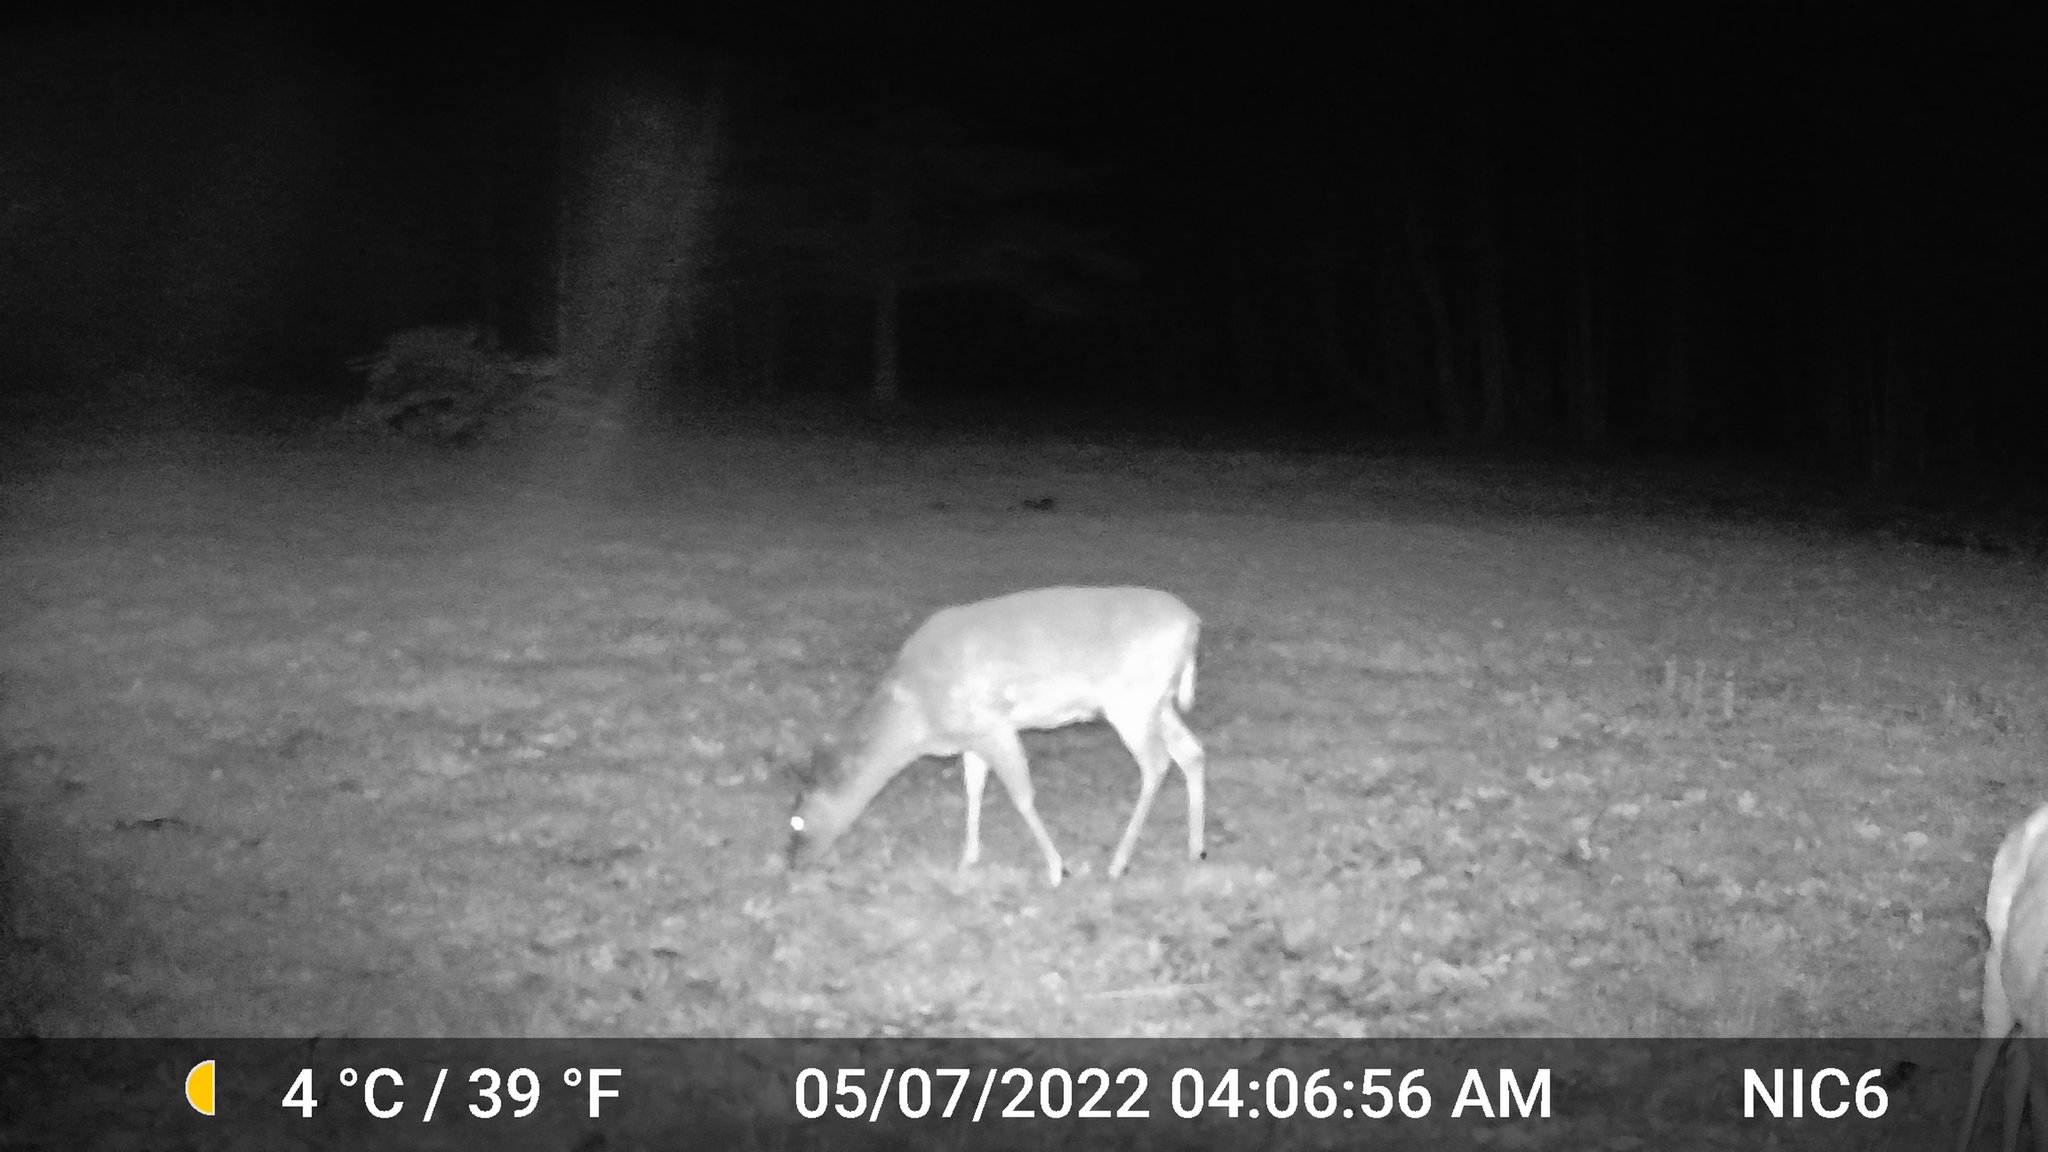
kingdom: Animalia
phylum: Chordata
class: Mammalia
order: Artiodactyla
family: Cervidae
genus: Odocoileus
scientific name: Odocoileus virginianus
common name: White-tailed deer
